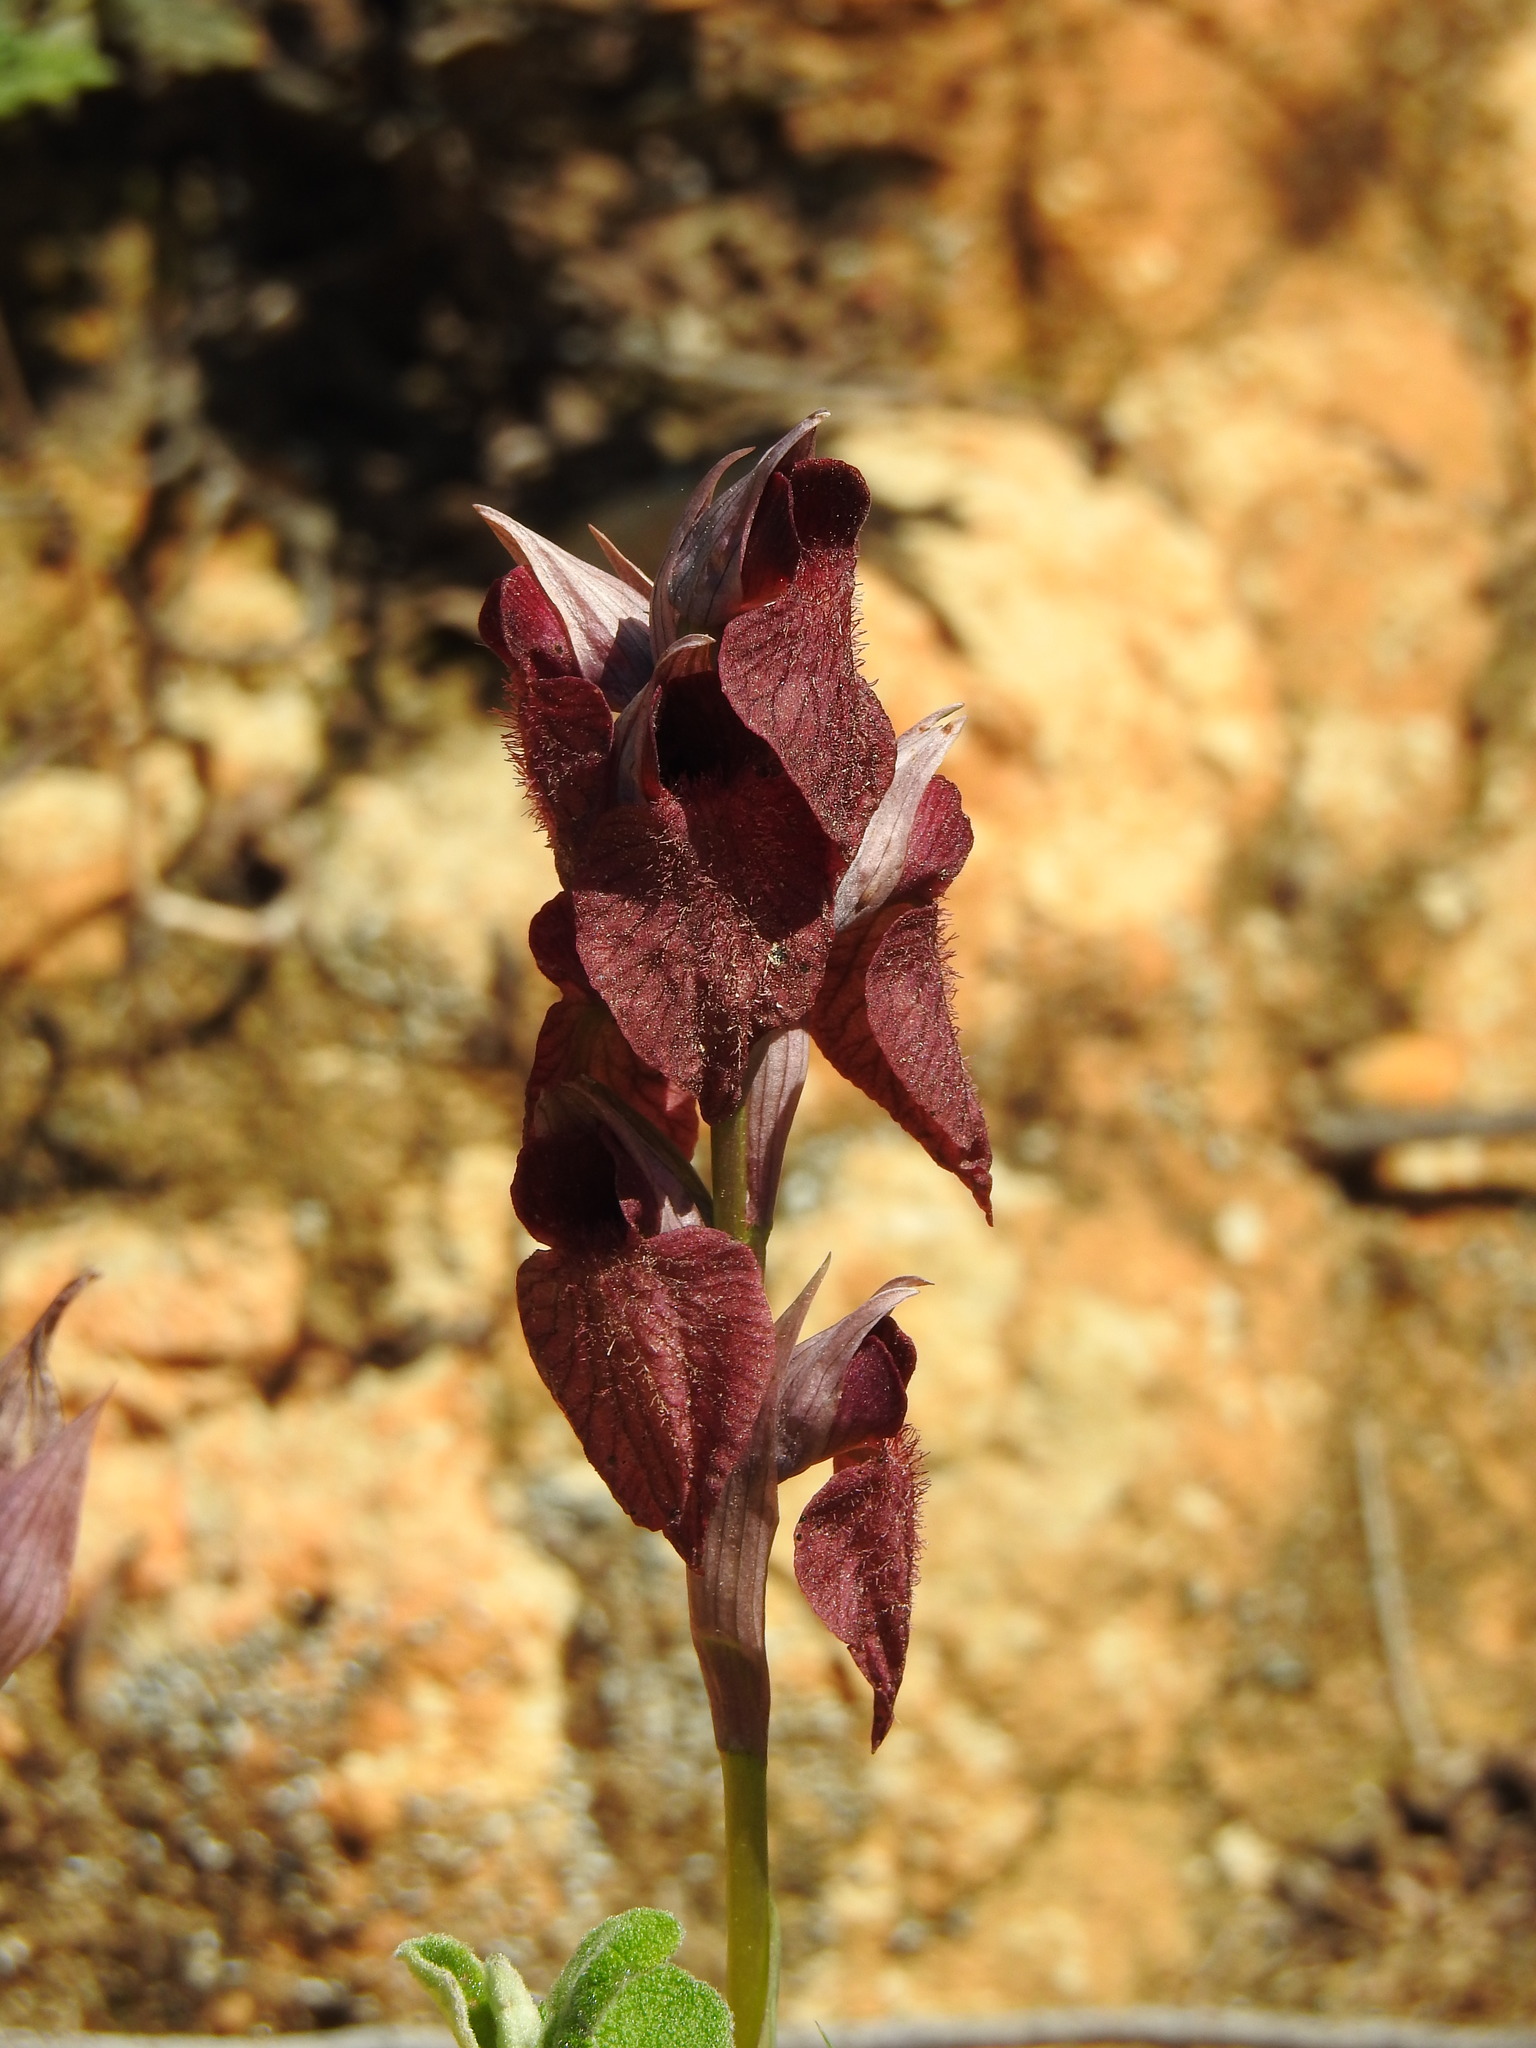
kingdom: Plantae
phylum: Tracheophyta
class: Liliopsida
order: Asparagales
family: Orchidaceae
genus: Serapias
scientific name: Serapias cordigera
